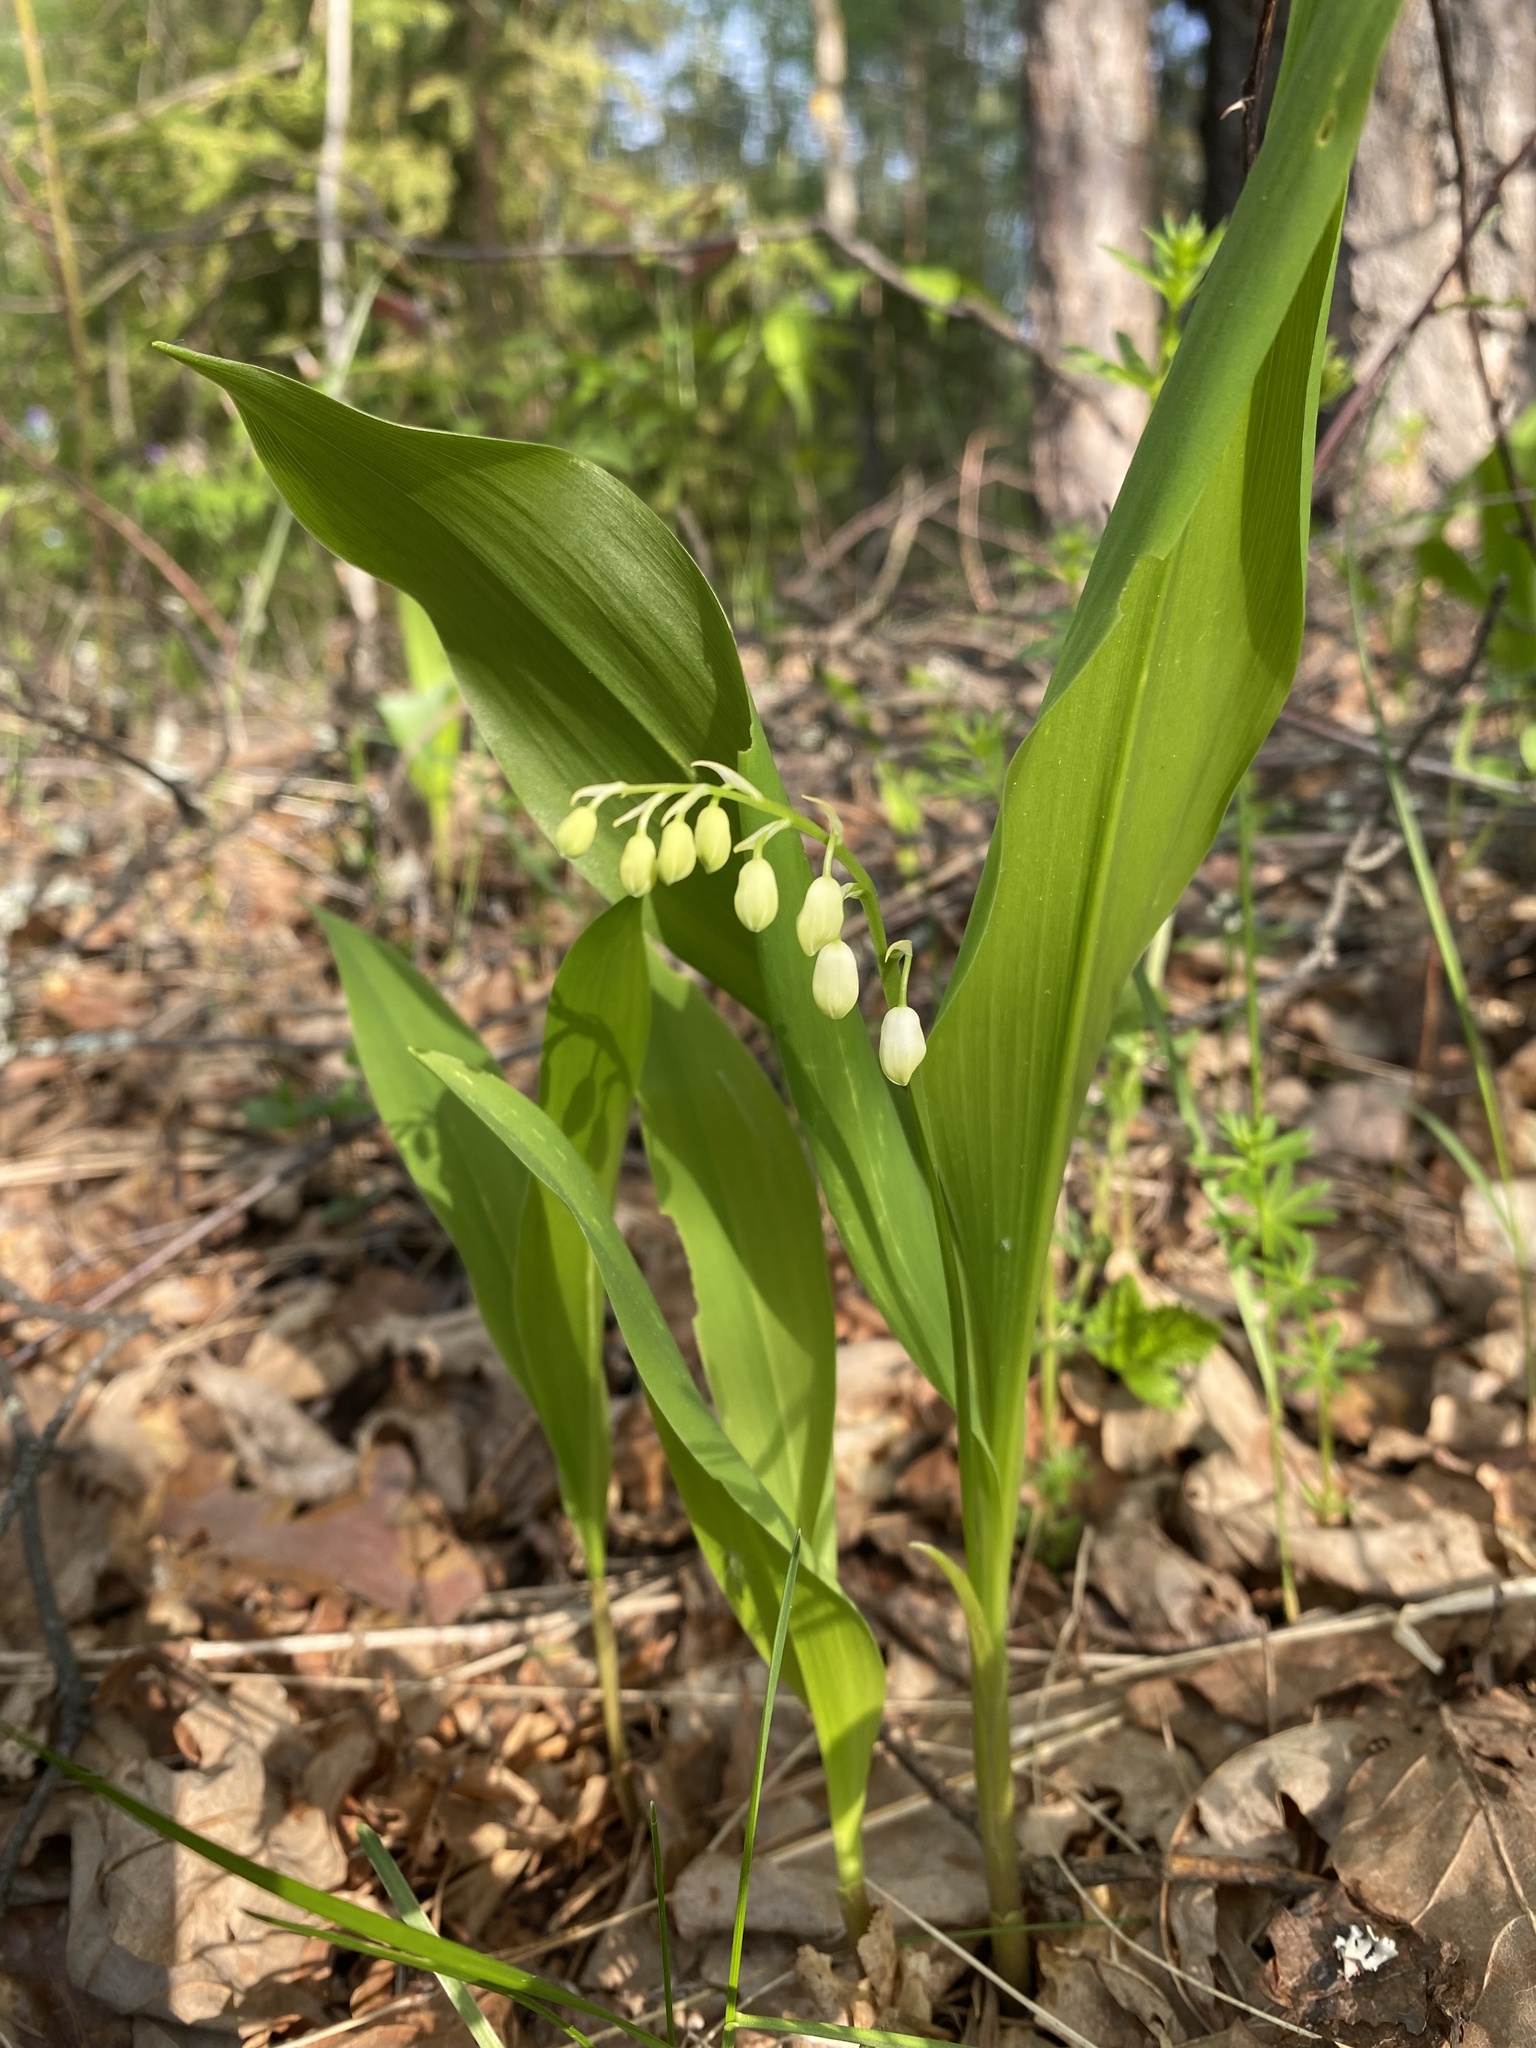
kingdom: Plantae
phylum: Tracheophyta
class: Liliopsida
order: Asparagales
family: Asparagaceae
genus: Convallaria
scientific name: Convallaria majalis
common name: Lily-of-the-valley
